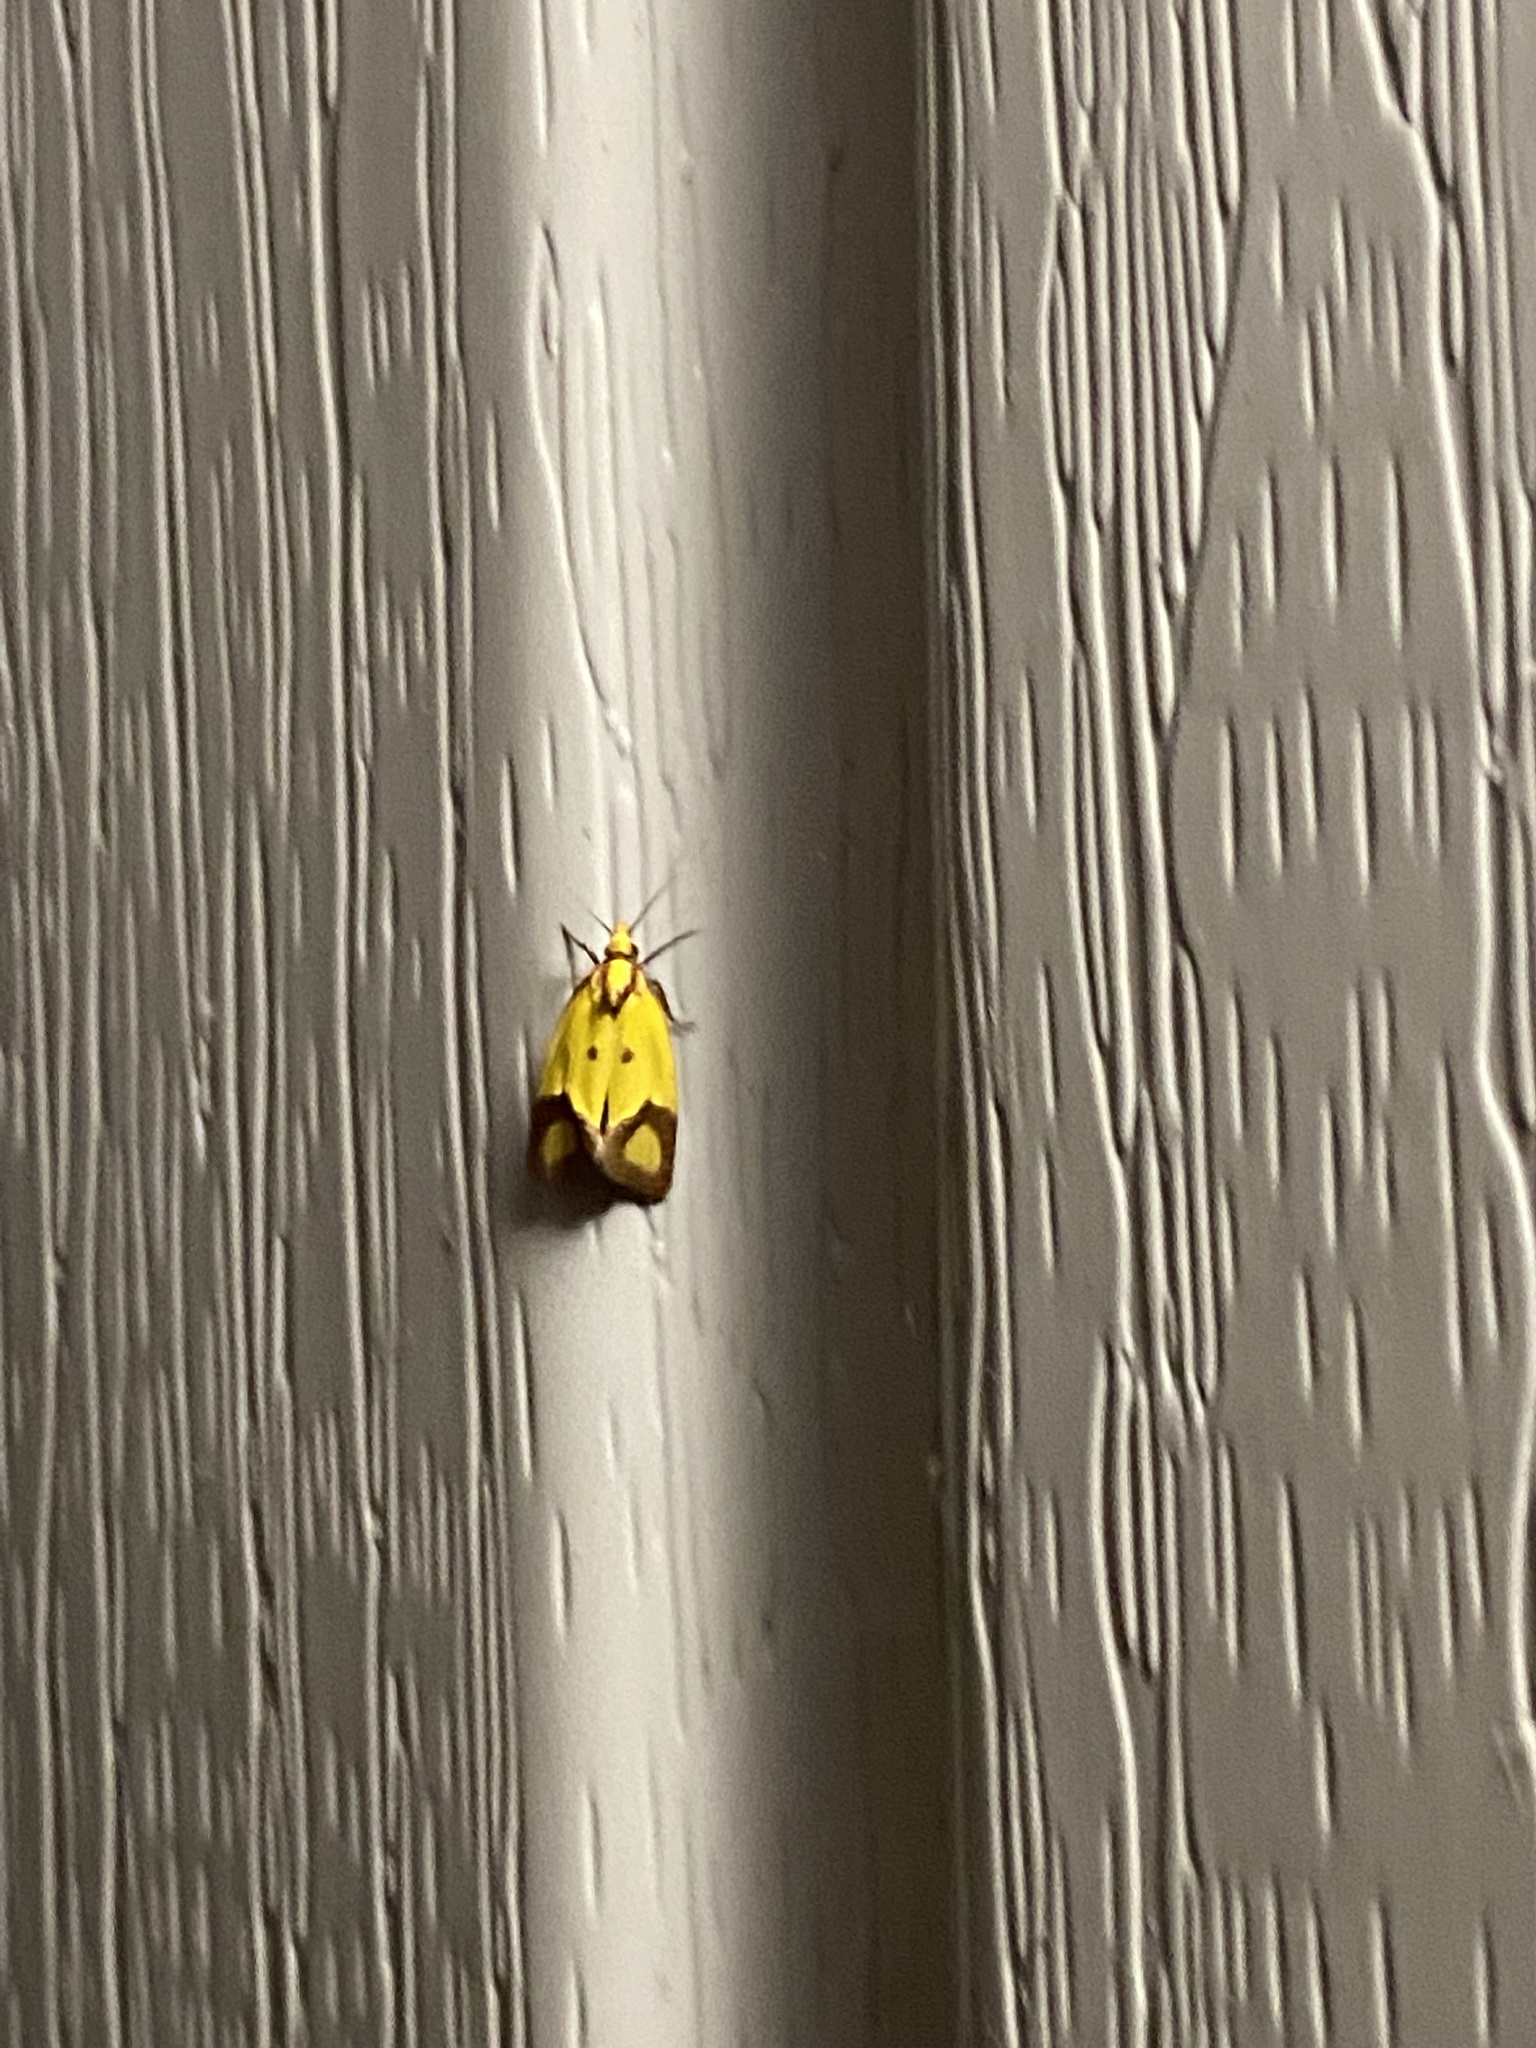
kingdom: Animalia
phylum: Arthropoda
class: Insecta
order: Lepidoptera
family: Tortricidae
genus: Agapeta
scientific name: Agapeta zoegana
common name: Sulfur knapweed root moth
